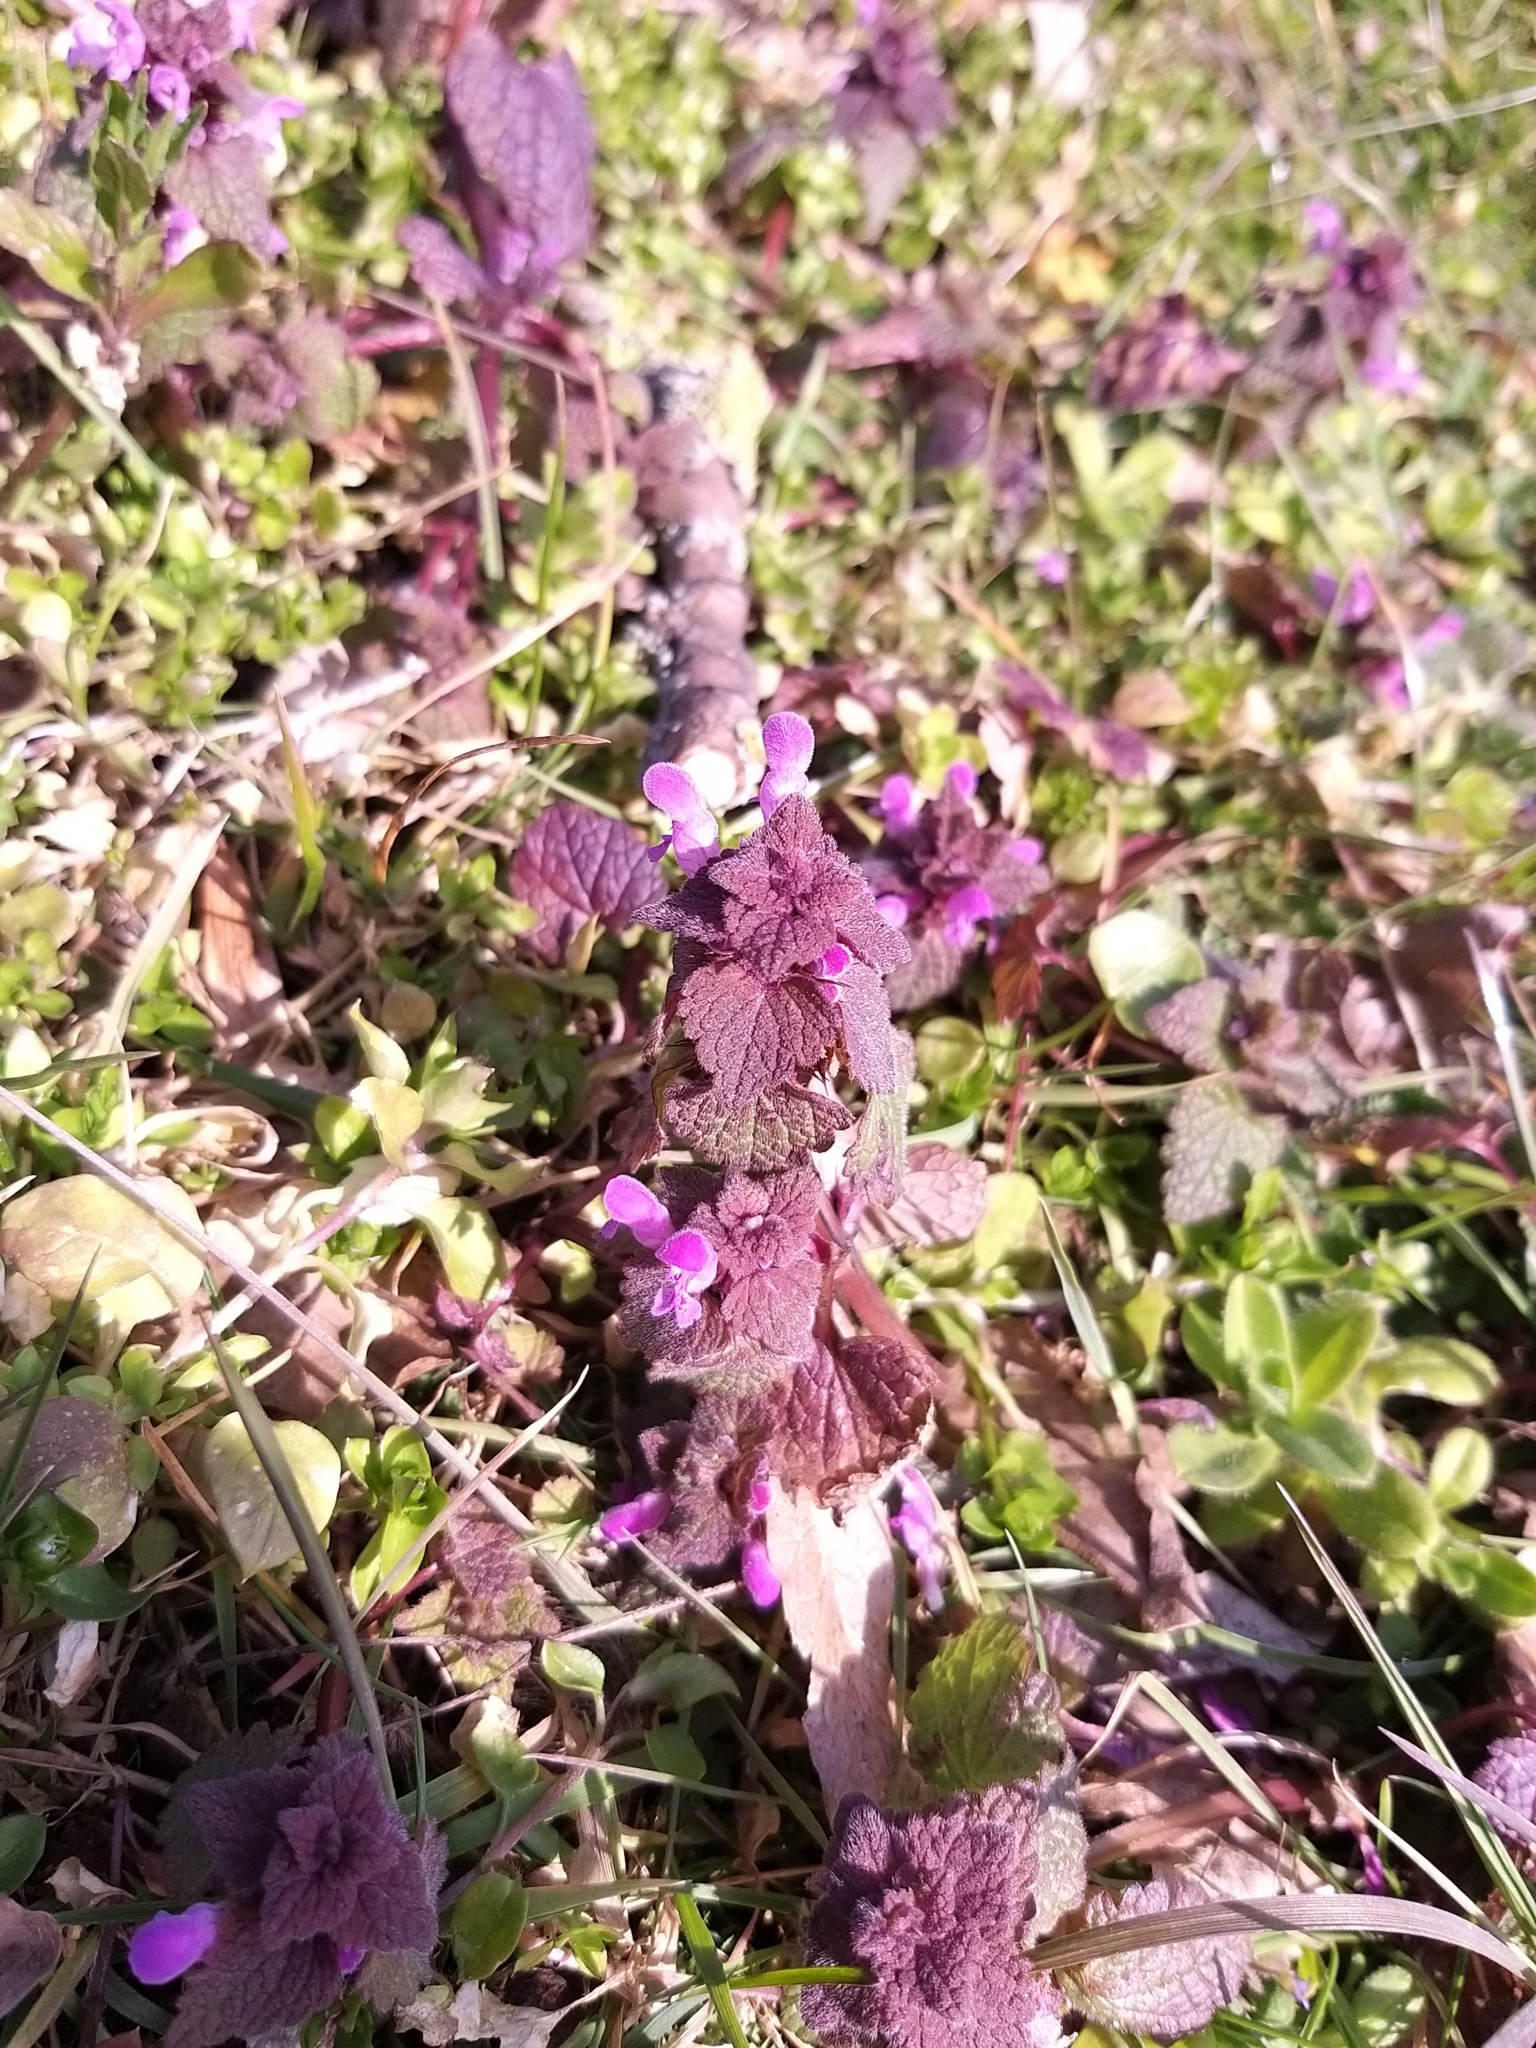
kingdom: Plantae
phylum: Tracheophyta
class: Magnoliopsida
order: Lamiales
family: Lamiaceae
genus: Lamium
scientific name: Lamium purpureum
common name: Red dead-nettle
